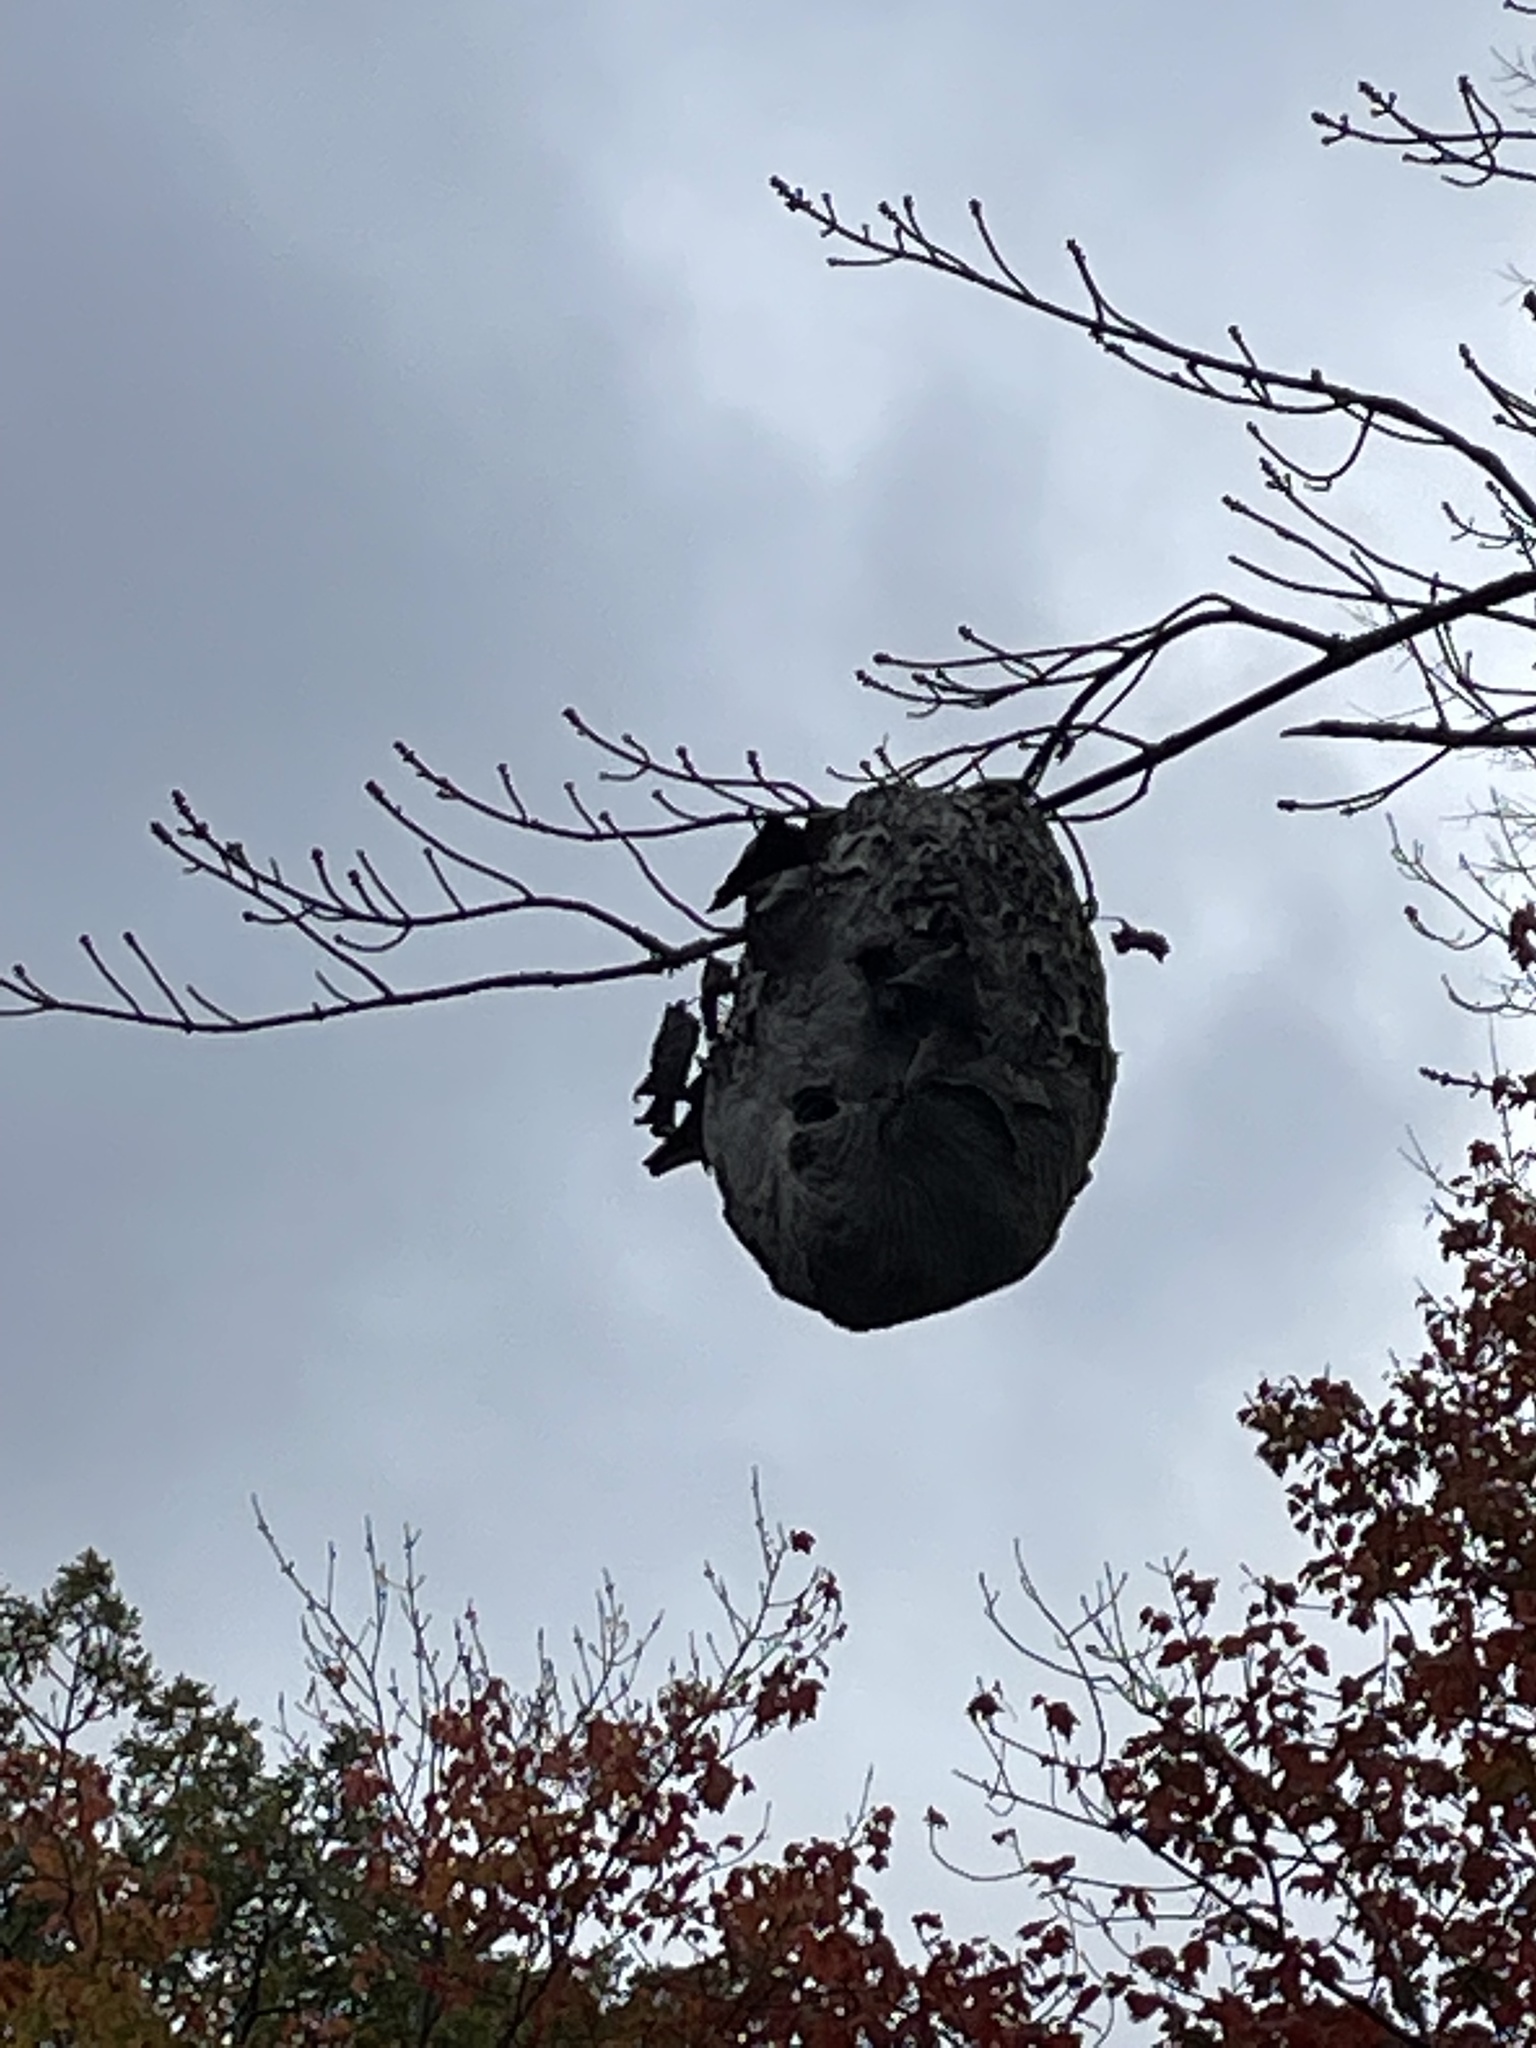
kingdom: Animalia
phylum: Arthropoda
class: Insecta
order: Hymenoptera
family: Vespidae
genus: Dolichovespula
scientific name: Dolichovespula
